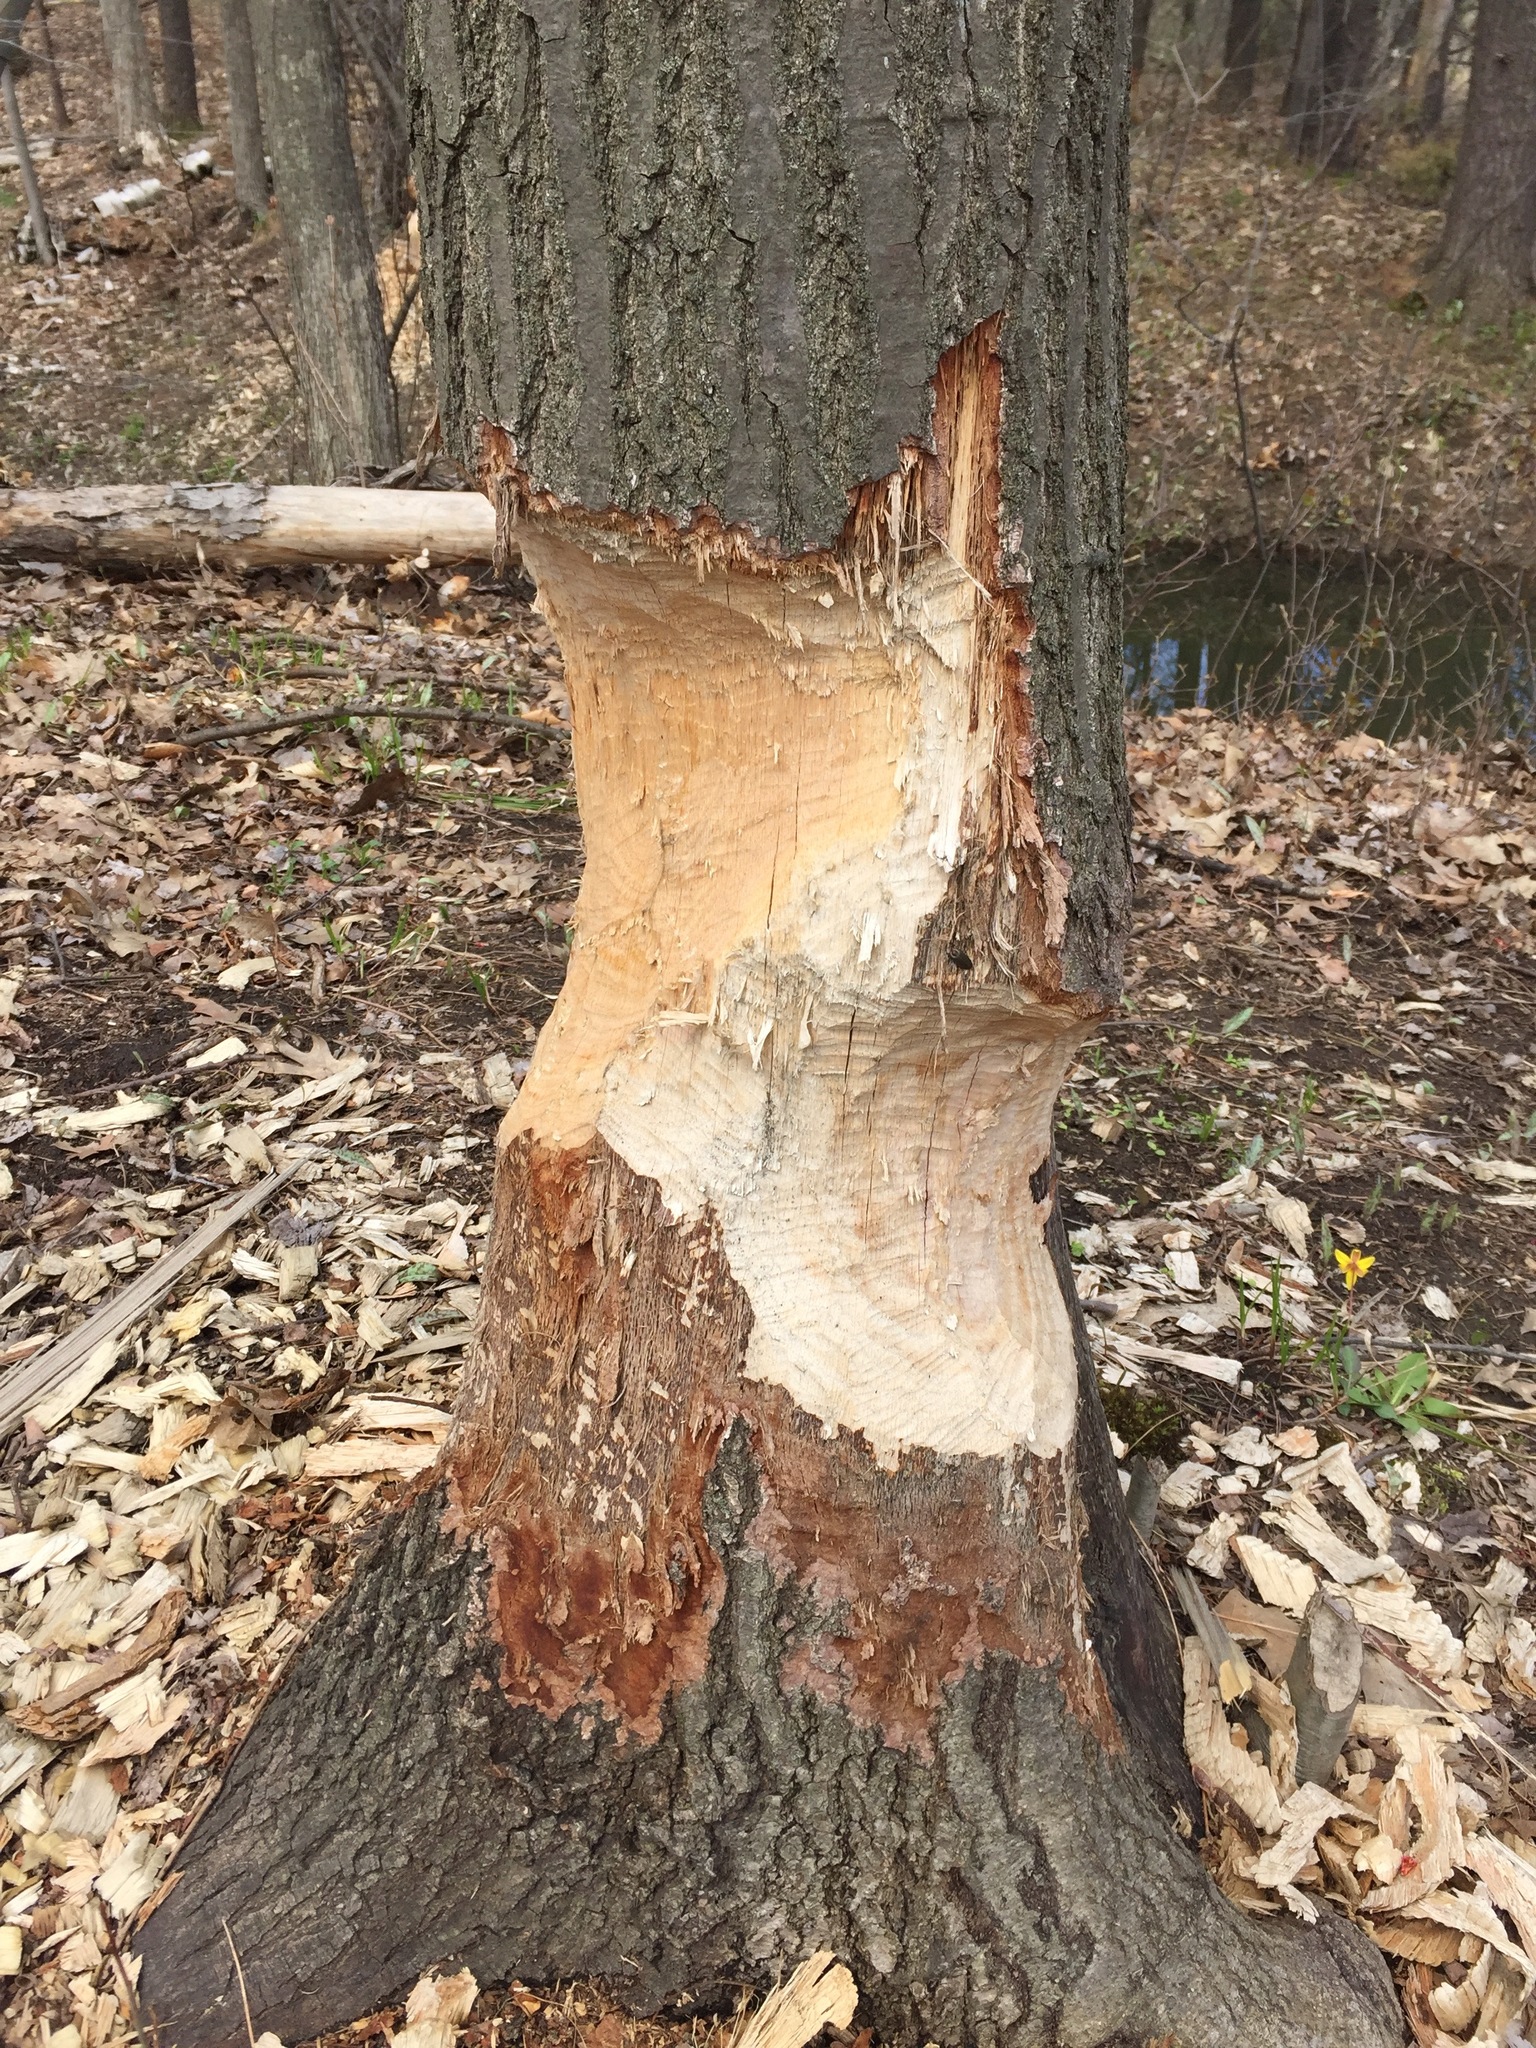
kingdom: Animalia
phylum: Chordata
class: Mammalia
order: Rodentia
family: Castoridae
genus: Castor
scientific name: Castor canadensis
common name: American beaver
